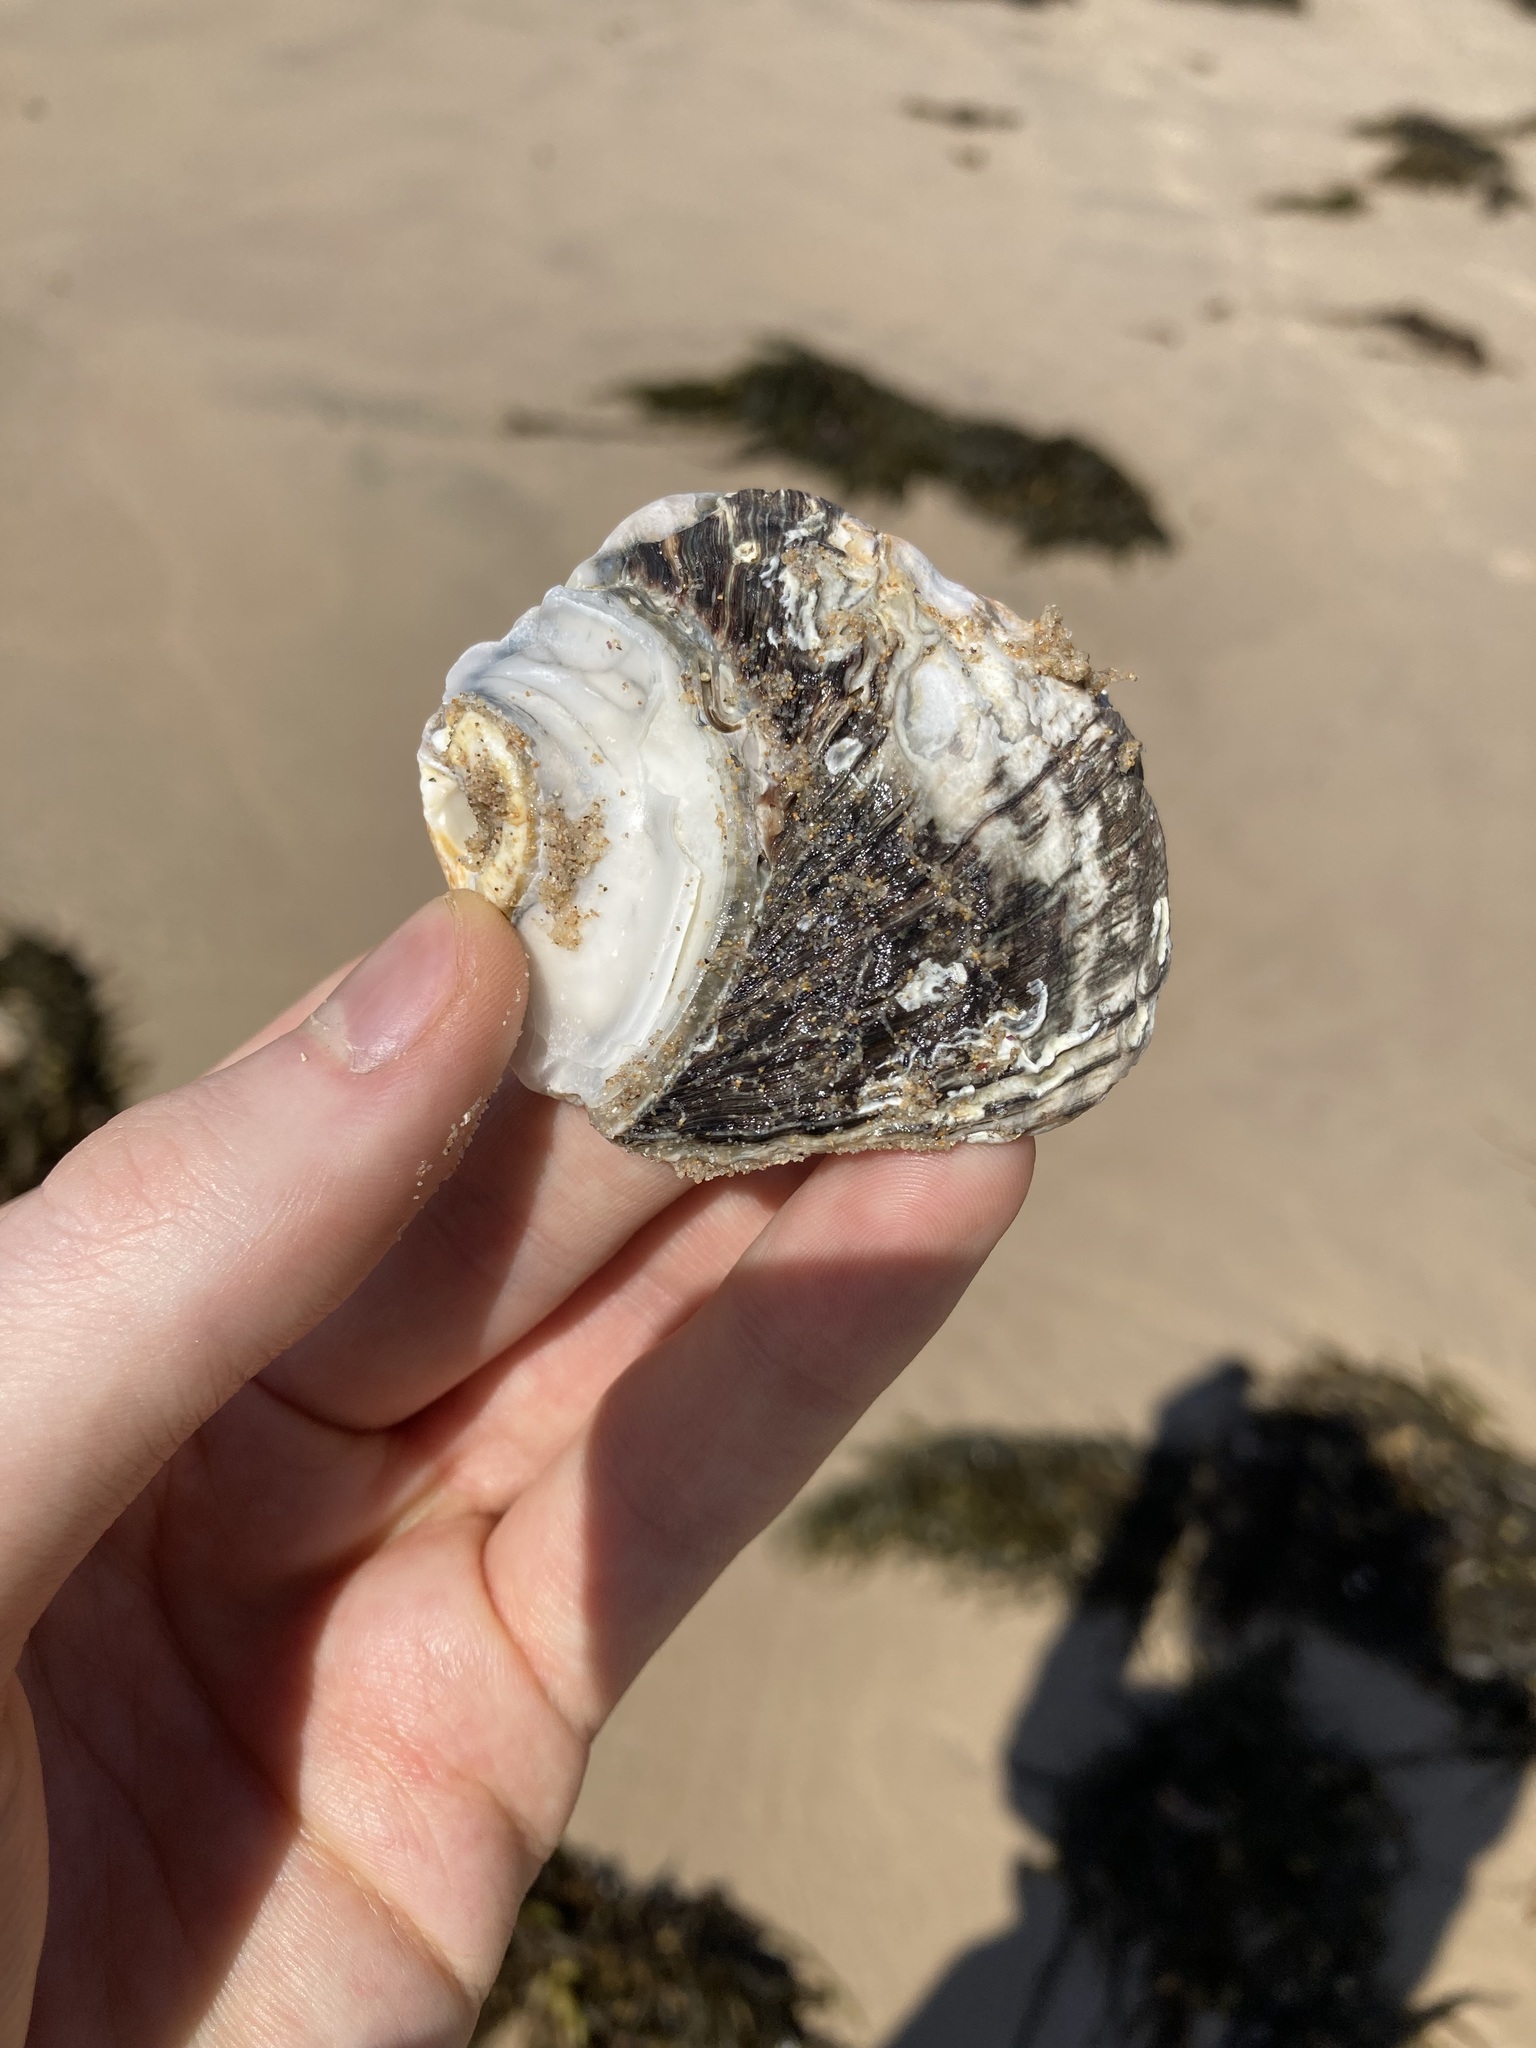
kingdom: Animalia
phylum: Mollusca
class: Gastropoda
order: Trochida
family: Turbinidae
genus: Lunella
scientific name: Lunella torquata
